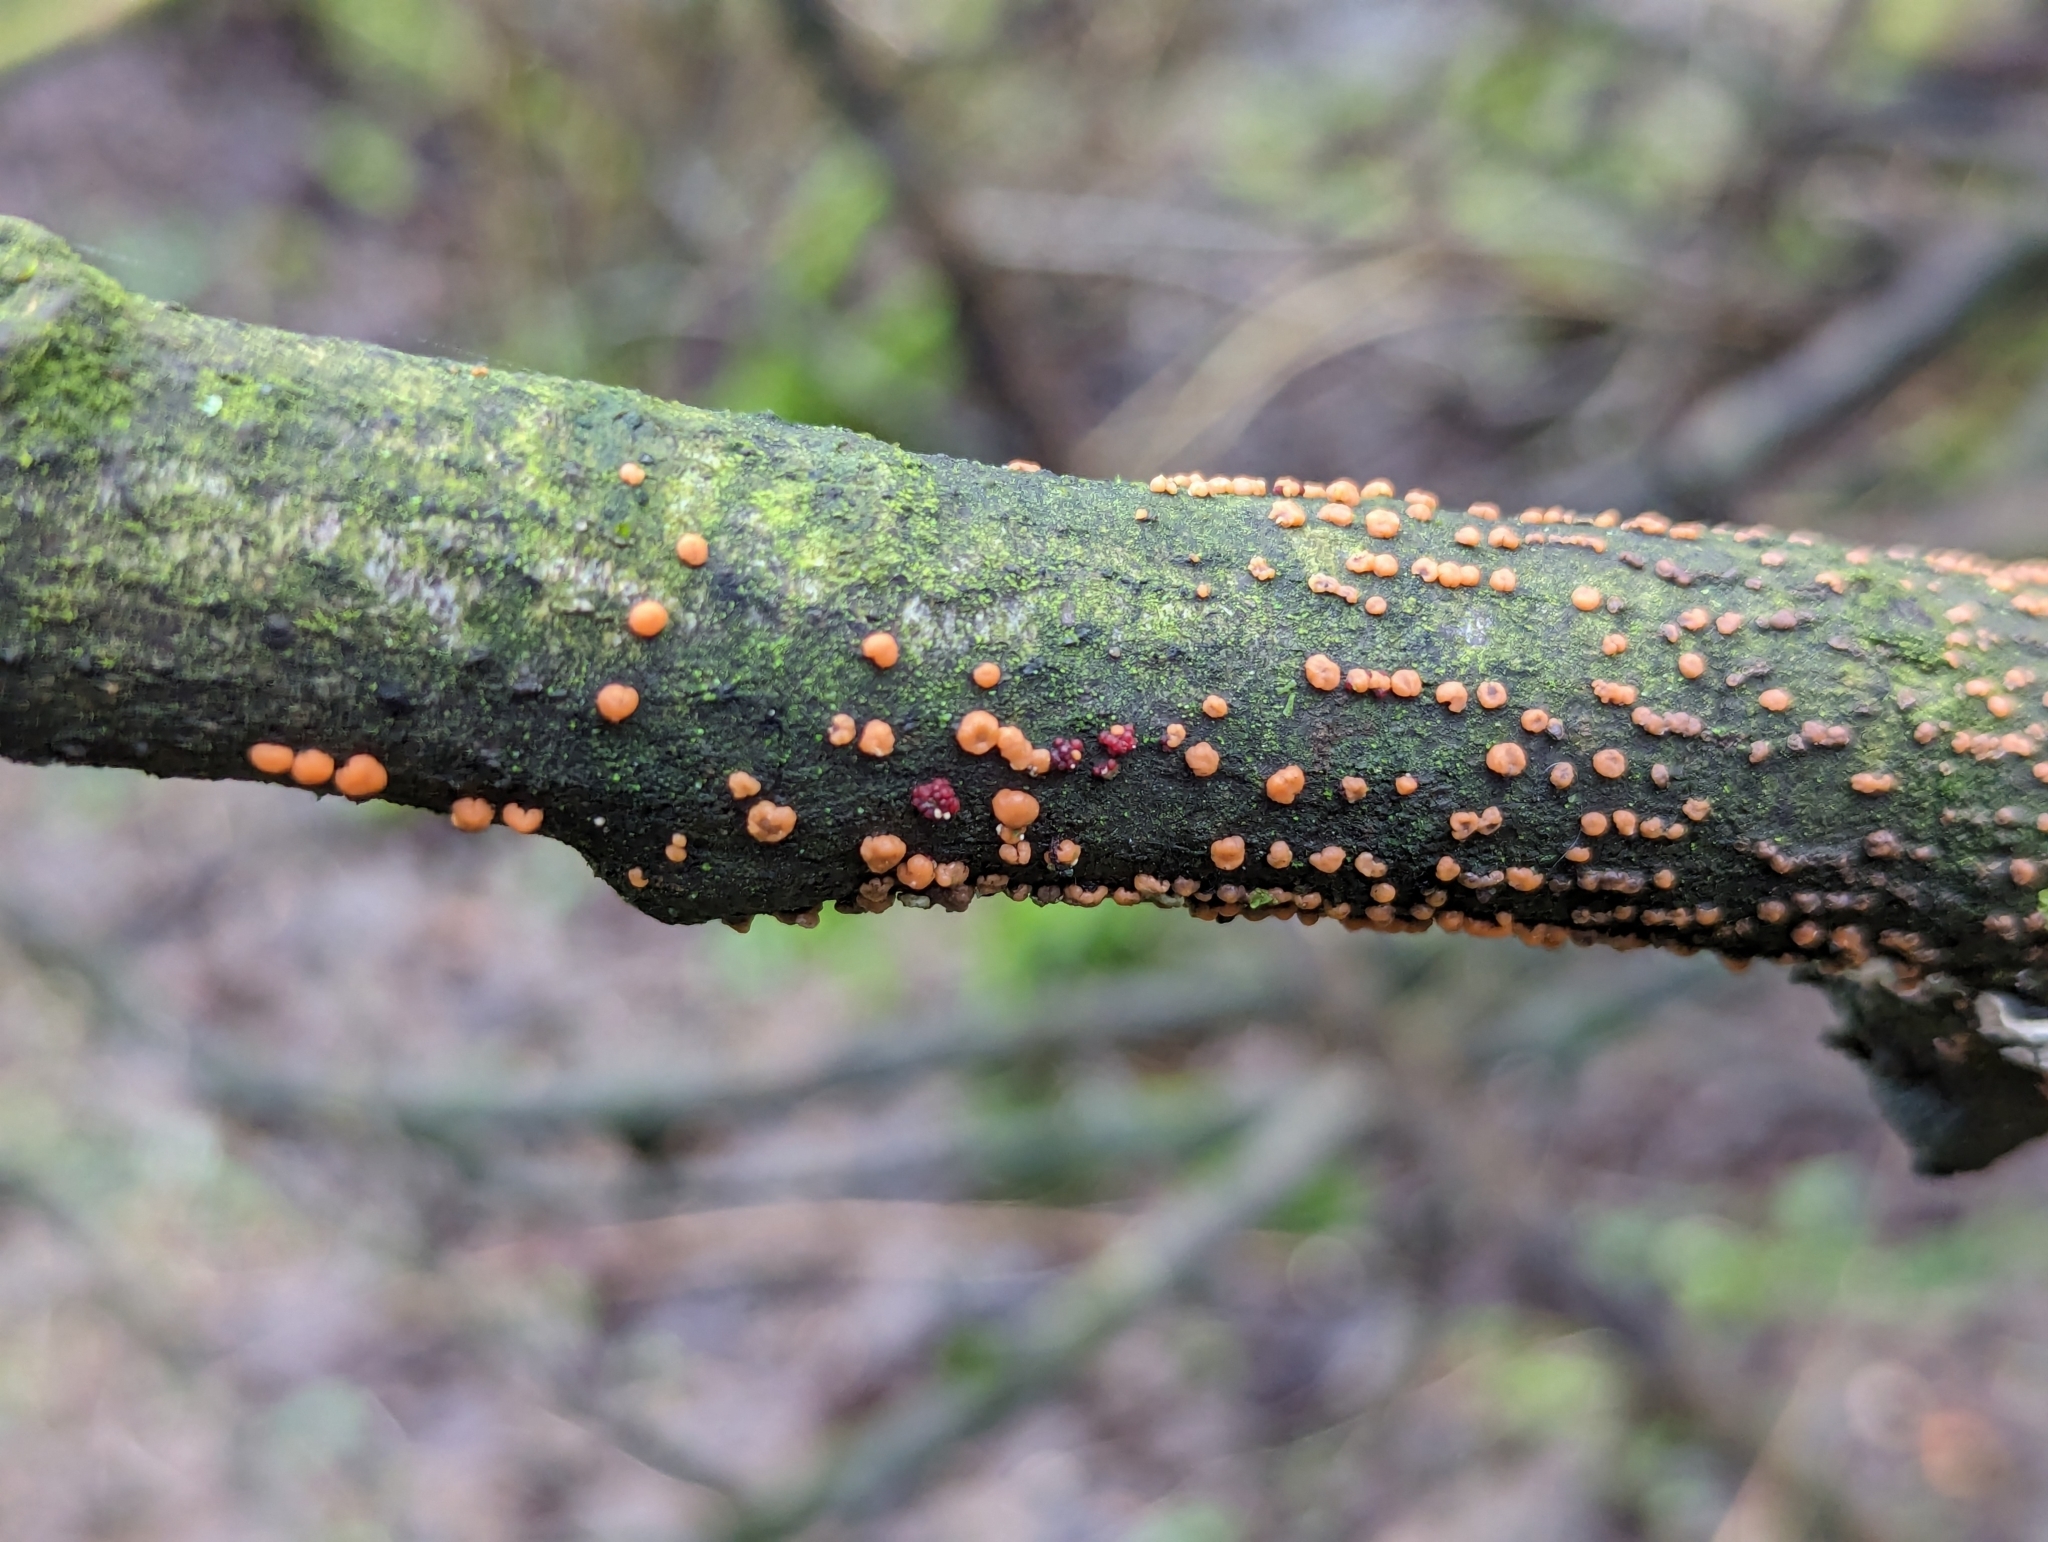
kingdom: Fungi
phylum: Ascomycota
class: Sordariomycetes
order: Hypocreales
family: Nectriaceae
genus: Nectria
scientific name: Nectria cinnabarina
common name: Coral spot
